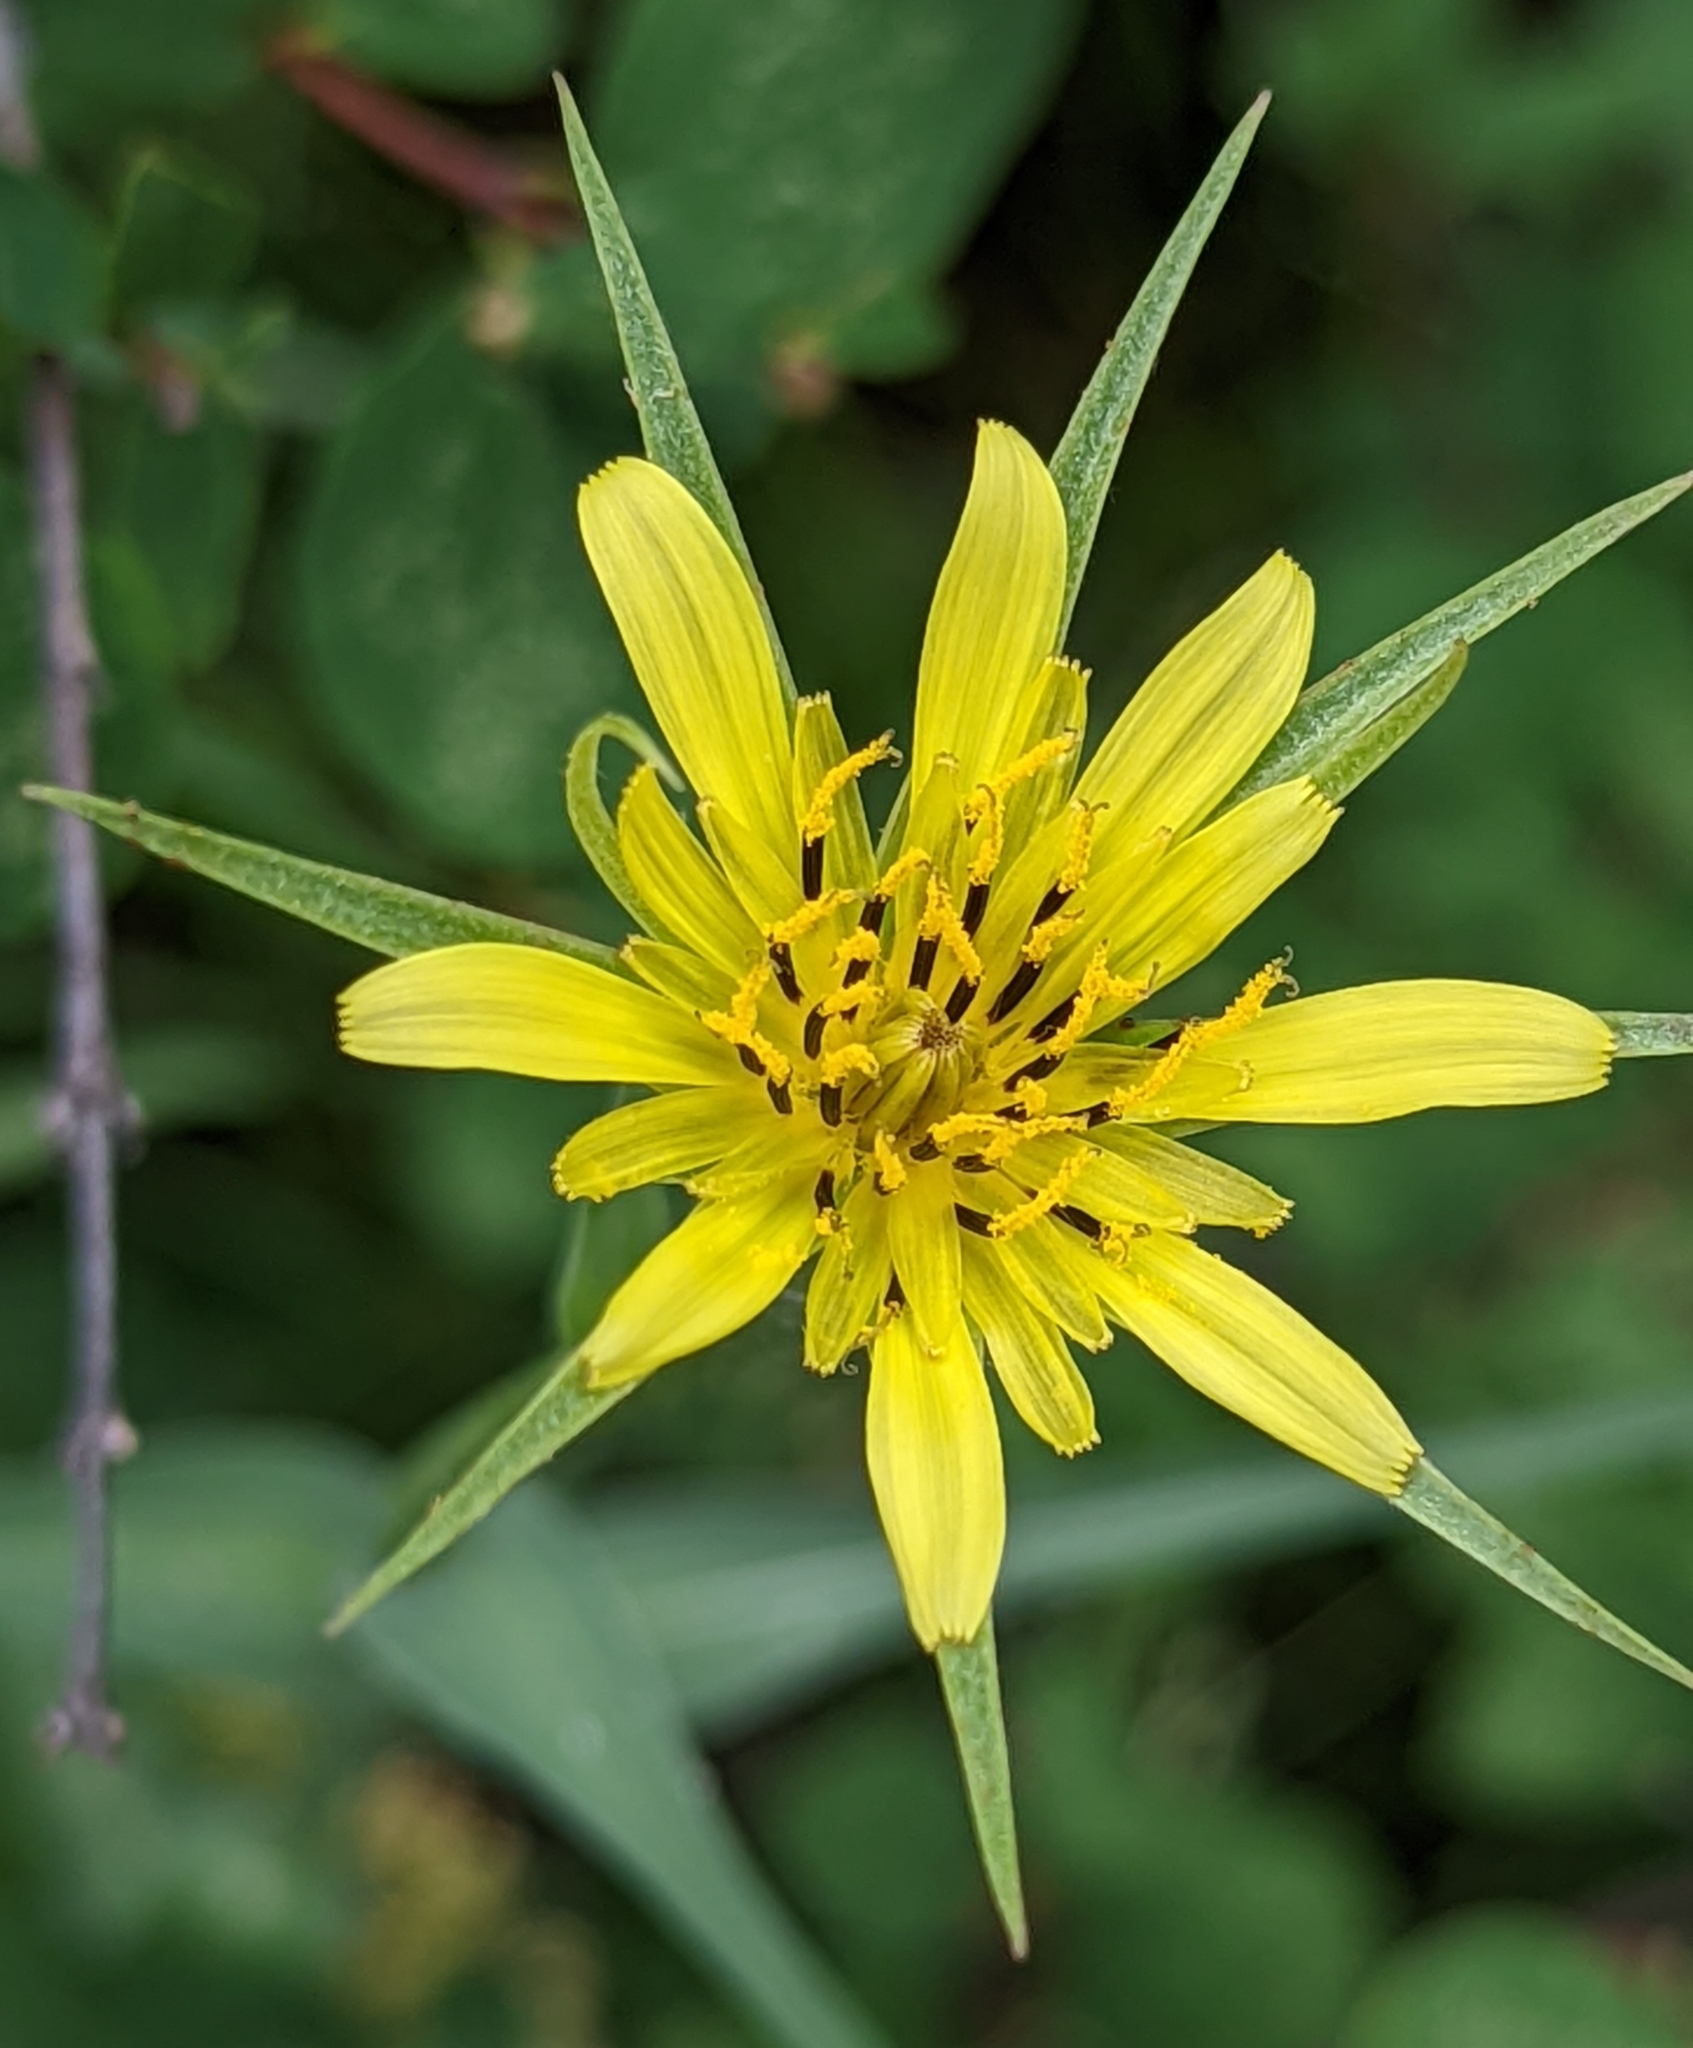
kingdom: Plantae
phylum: Tracheophyta
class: Magnoliopsida
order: Asterales
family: Asteraceae
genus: Tragopogon
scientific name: Tragopogon dubius
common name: Yellow salsify
